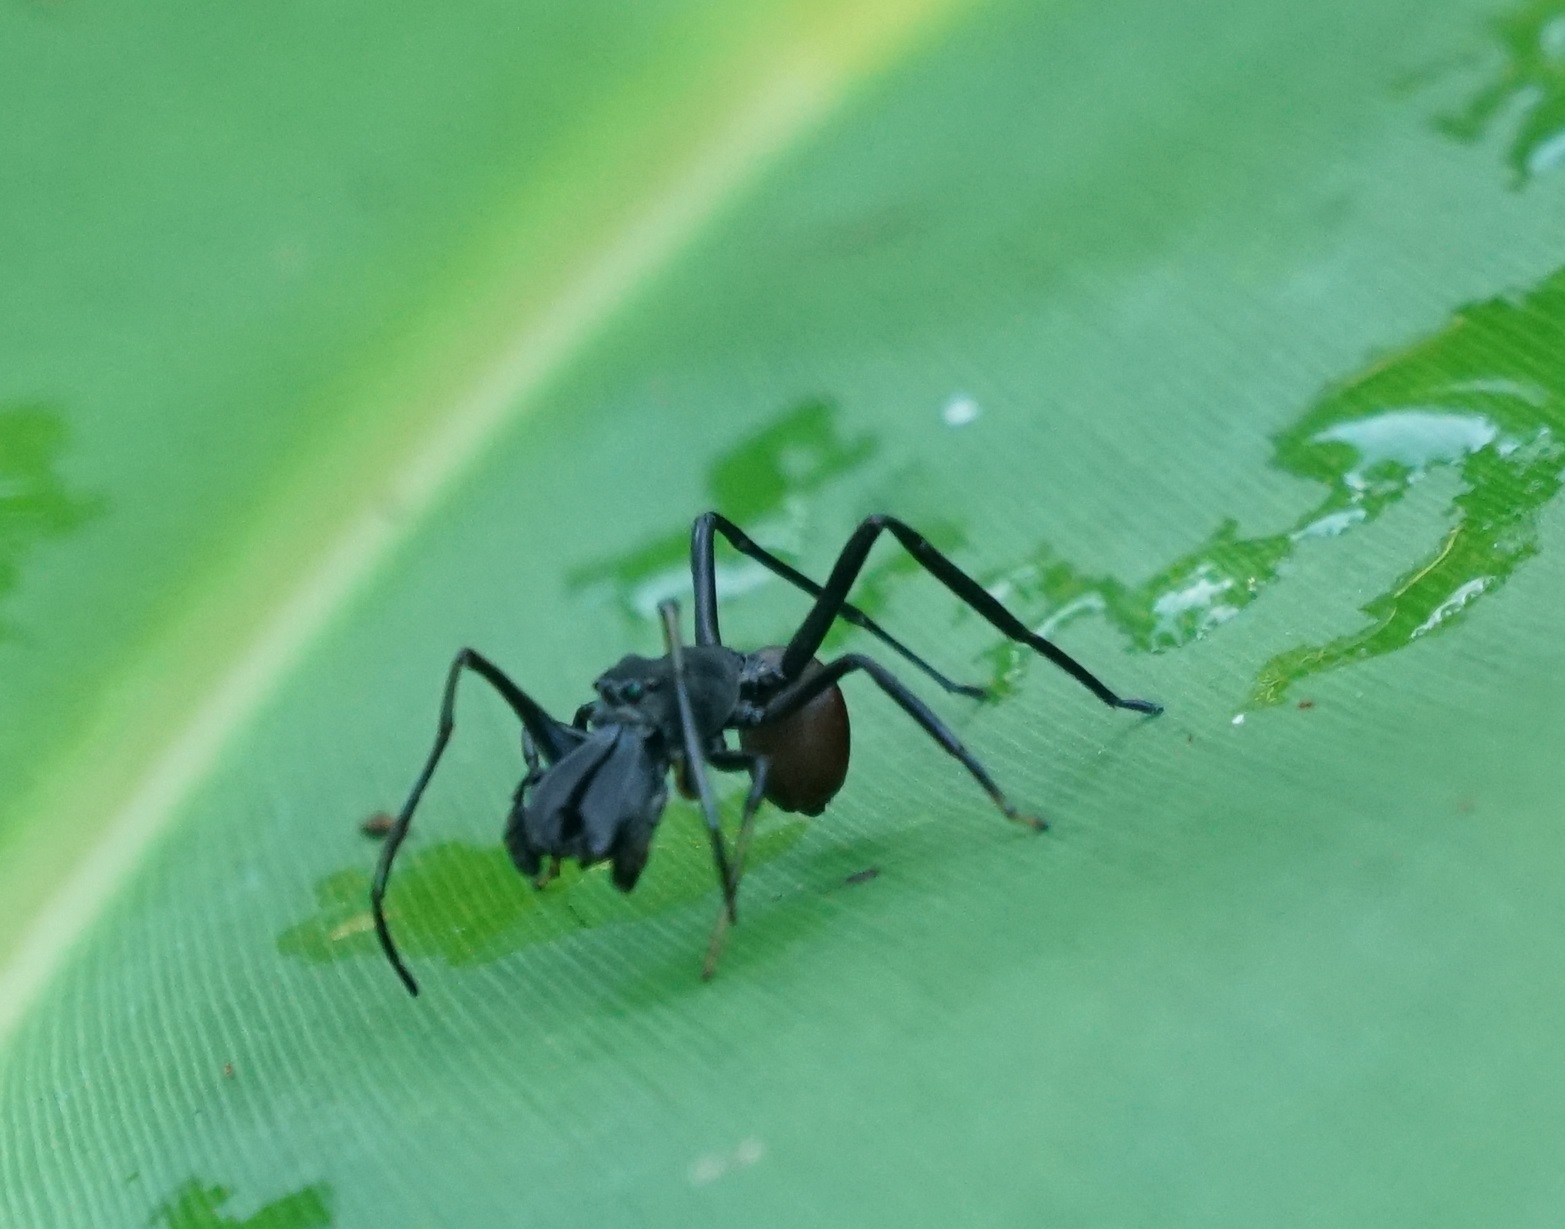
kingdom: Animalia
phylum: Arthropoda
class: Arachnida
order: Araneae
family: Salticidae
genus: Toxeus
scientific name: Toxeus maxillosus
